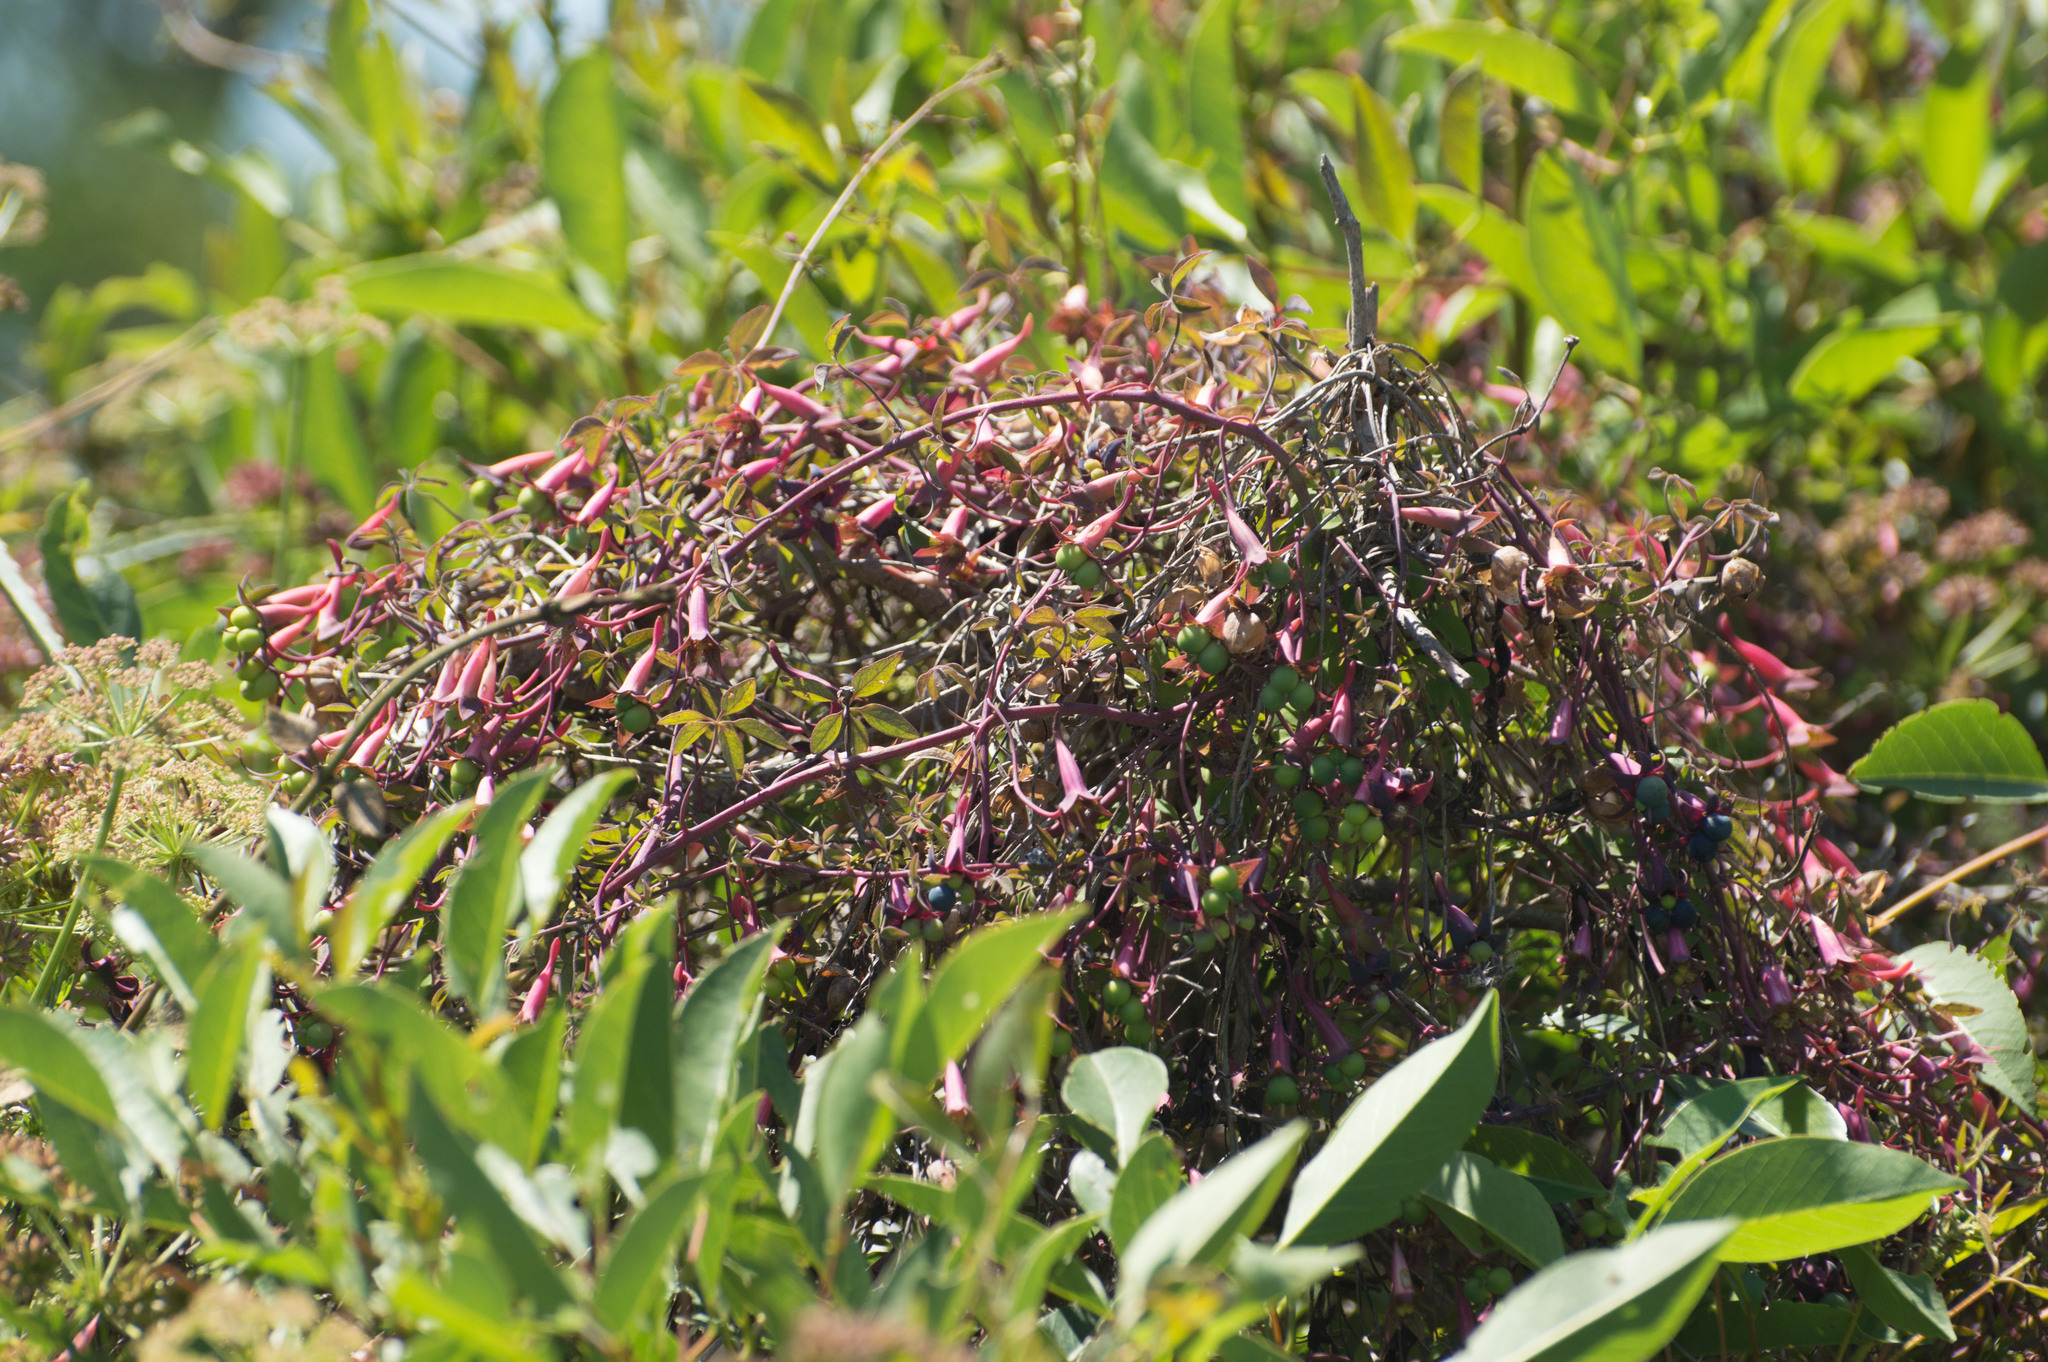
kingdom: Plantae
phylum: Tracheophyta
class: Magnoliopsida
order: Brassicales
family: Tropaeolaceae
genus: Tropaeolum
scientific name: Tropaeolum pentaphyllum
